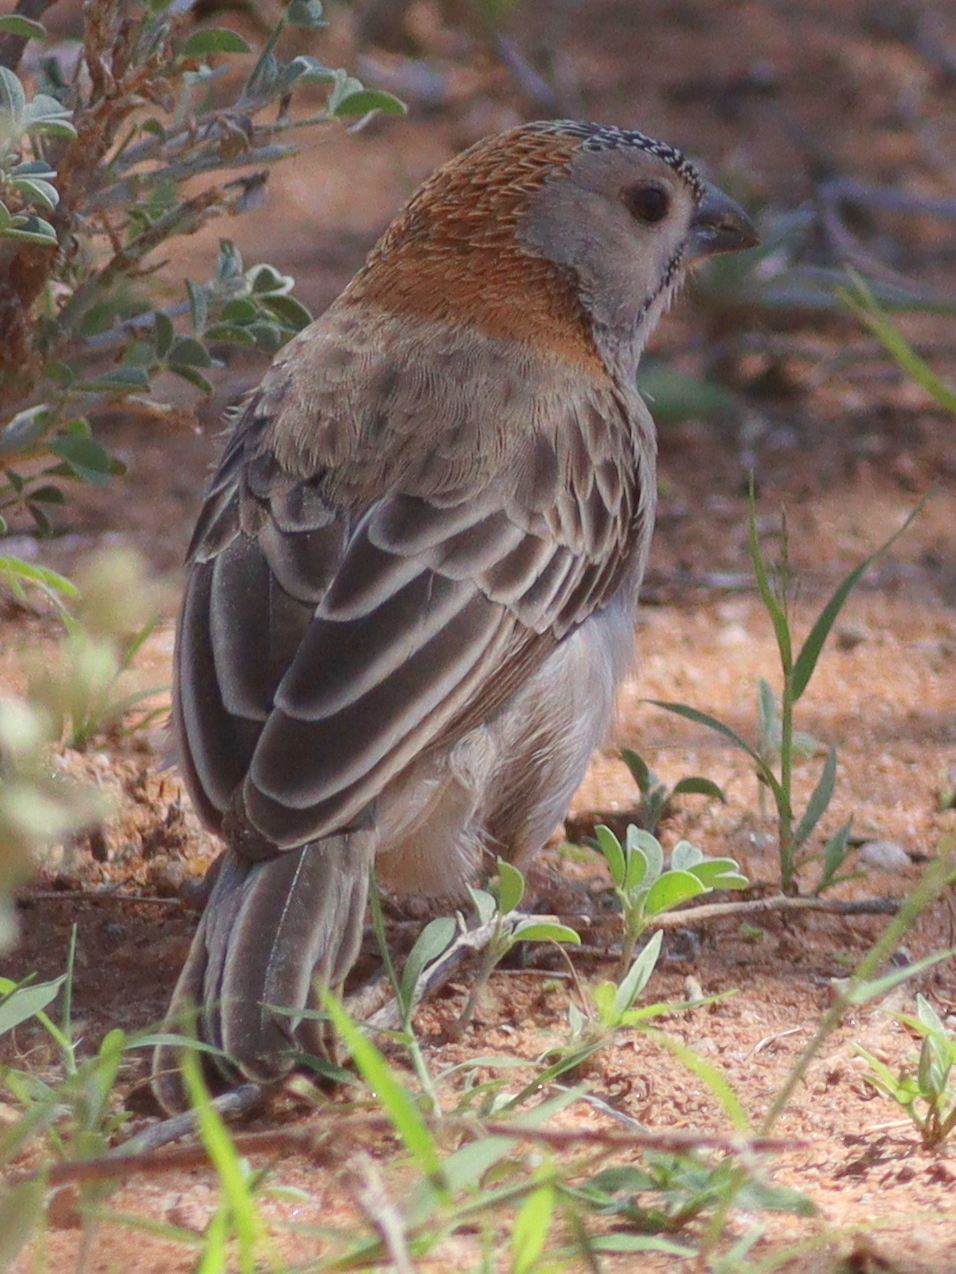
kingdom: Animalia
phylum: Chordata
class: Aves
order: Passeriformes
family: Ploceidae
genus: Sporopipes
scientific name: Sporopipes frontalis
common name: Speckle-fronted weaver
